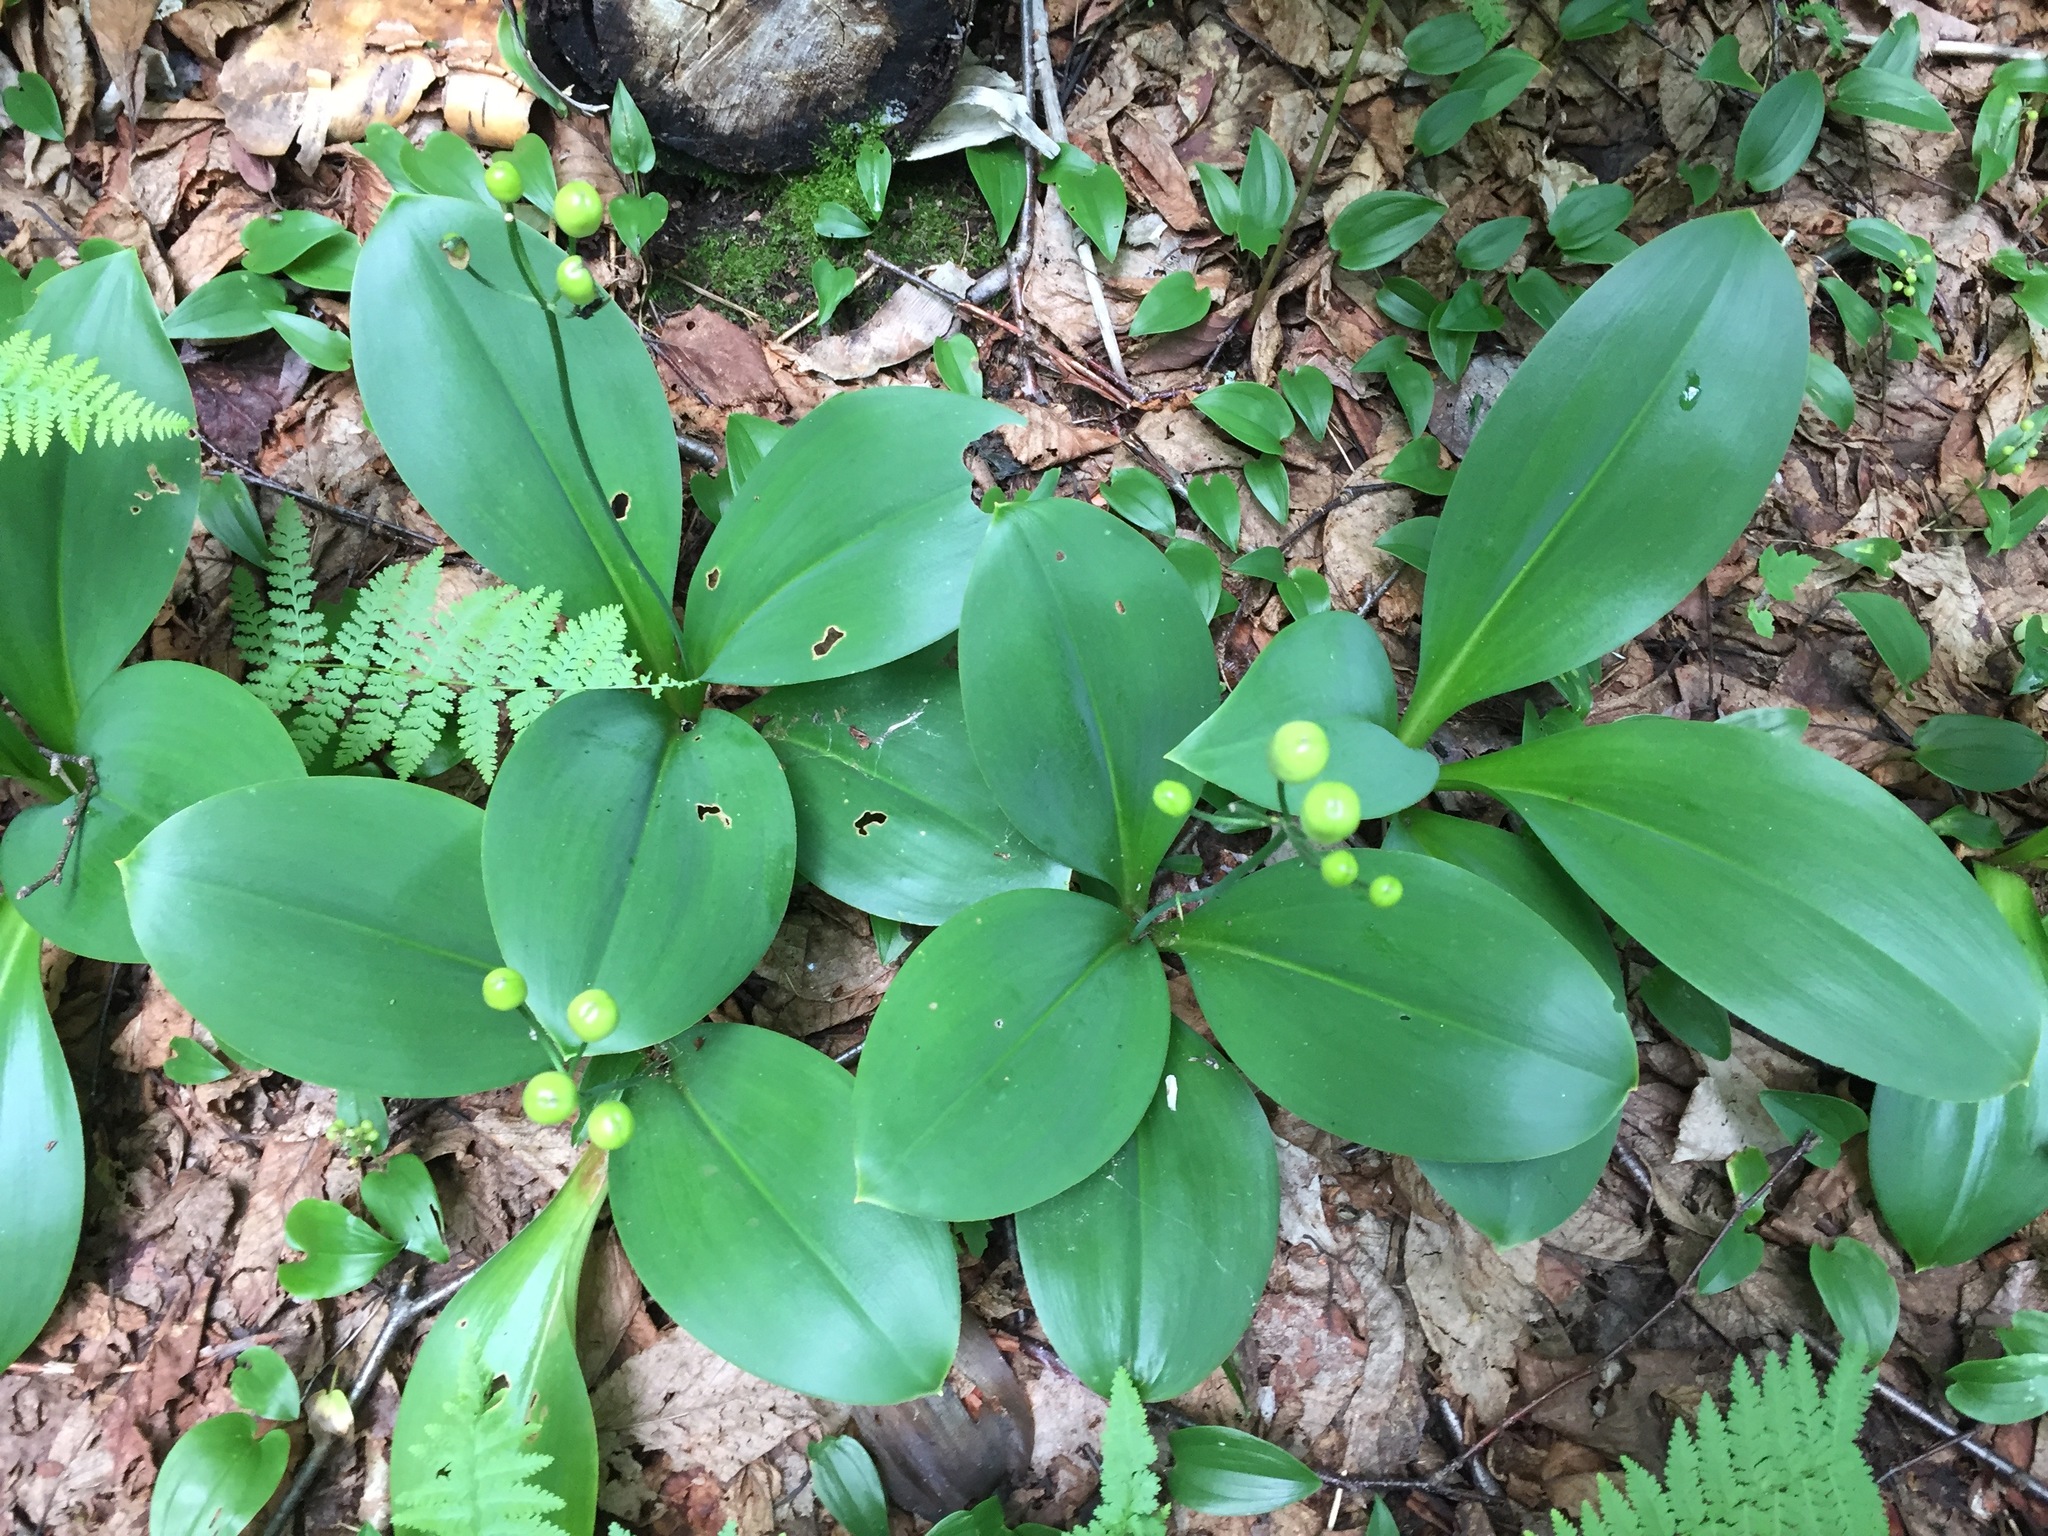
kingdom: Plantae
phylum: Tracheophyta
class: Liliopsida
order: Liliales
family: Liliaceae
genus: Clintonia
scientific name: Clintonia borealis
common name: Yellow clintonia
